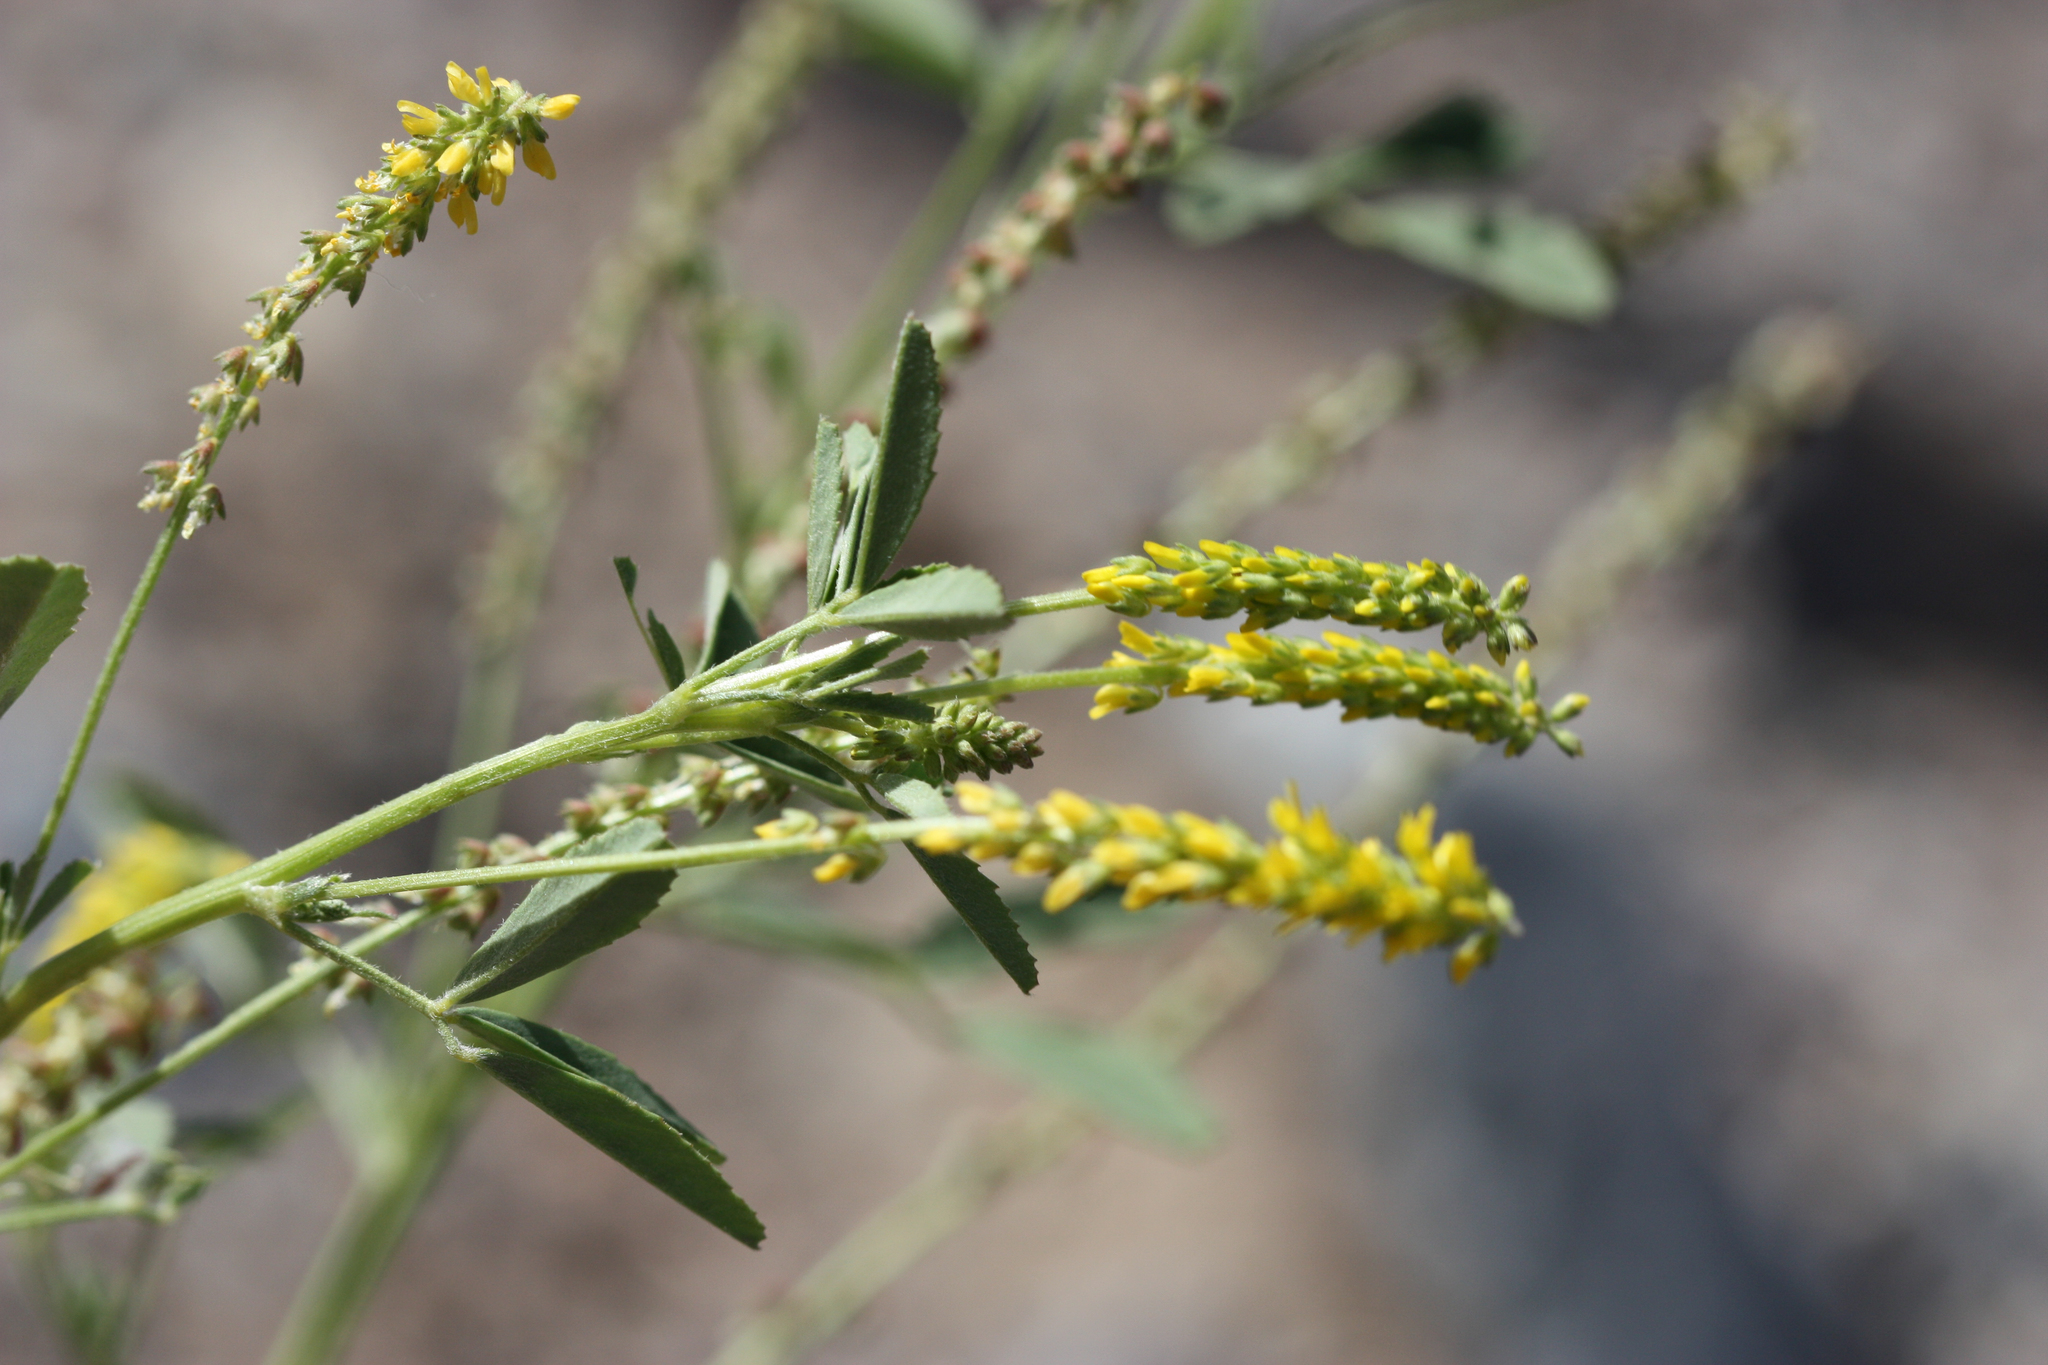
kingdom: Plantae
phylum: Tracheophyta
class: Magnoliopsida
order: Fabales
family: Fabaceae
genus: Melilotus
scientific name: Melilotus indicus
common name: Small melilot
